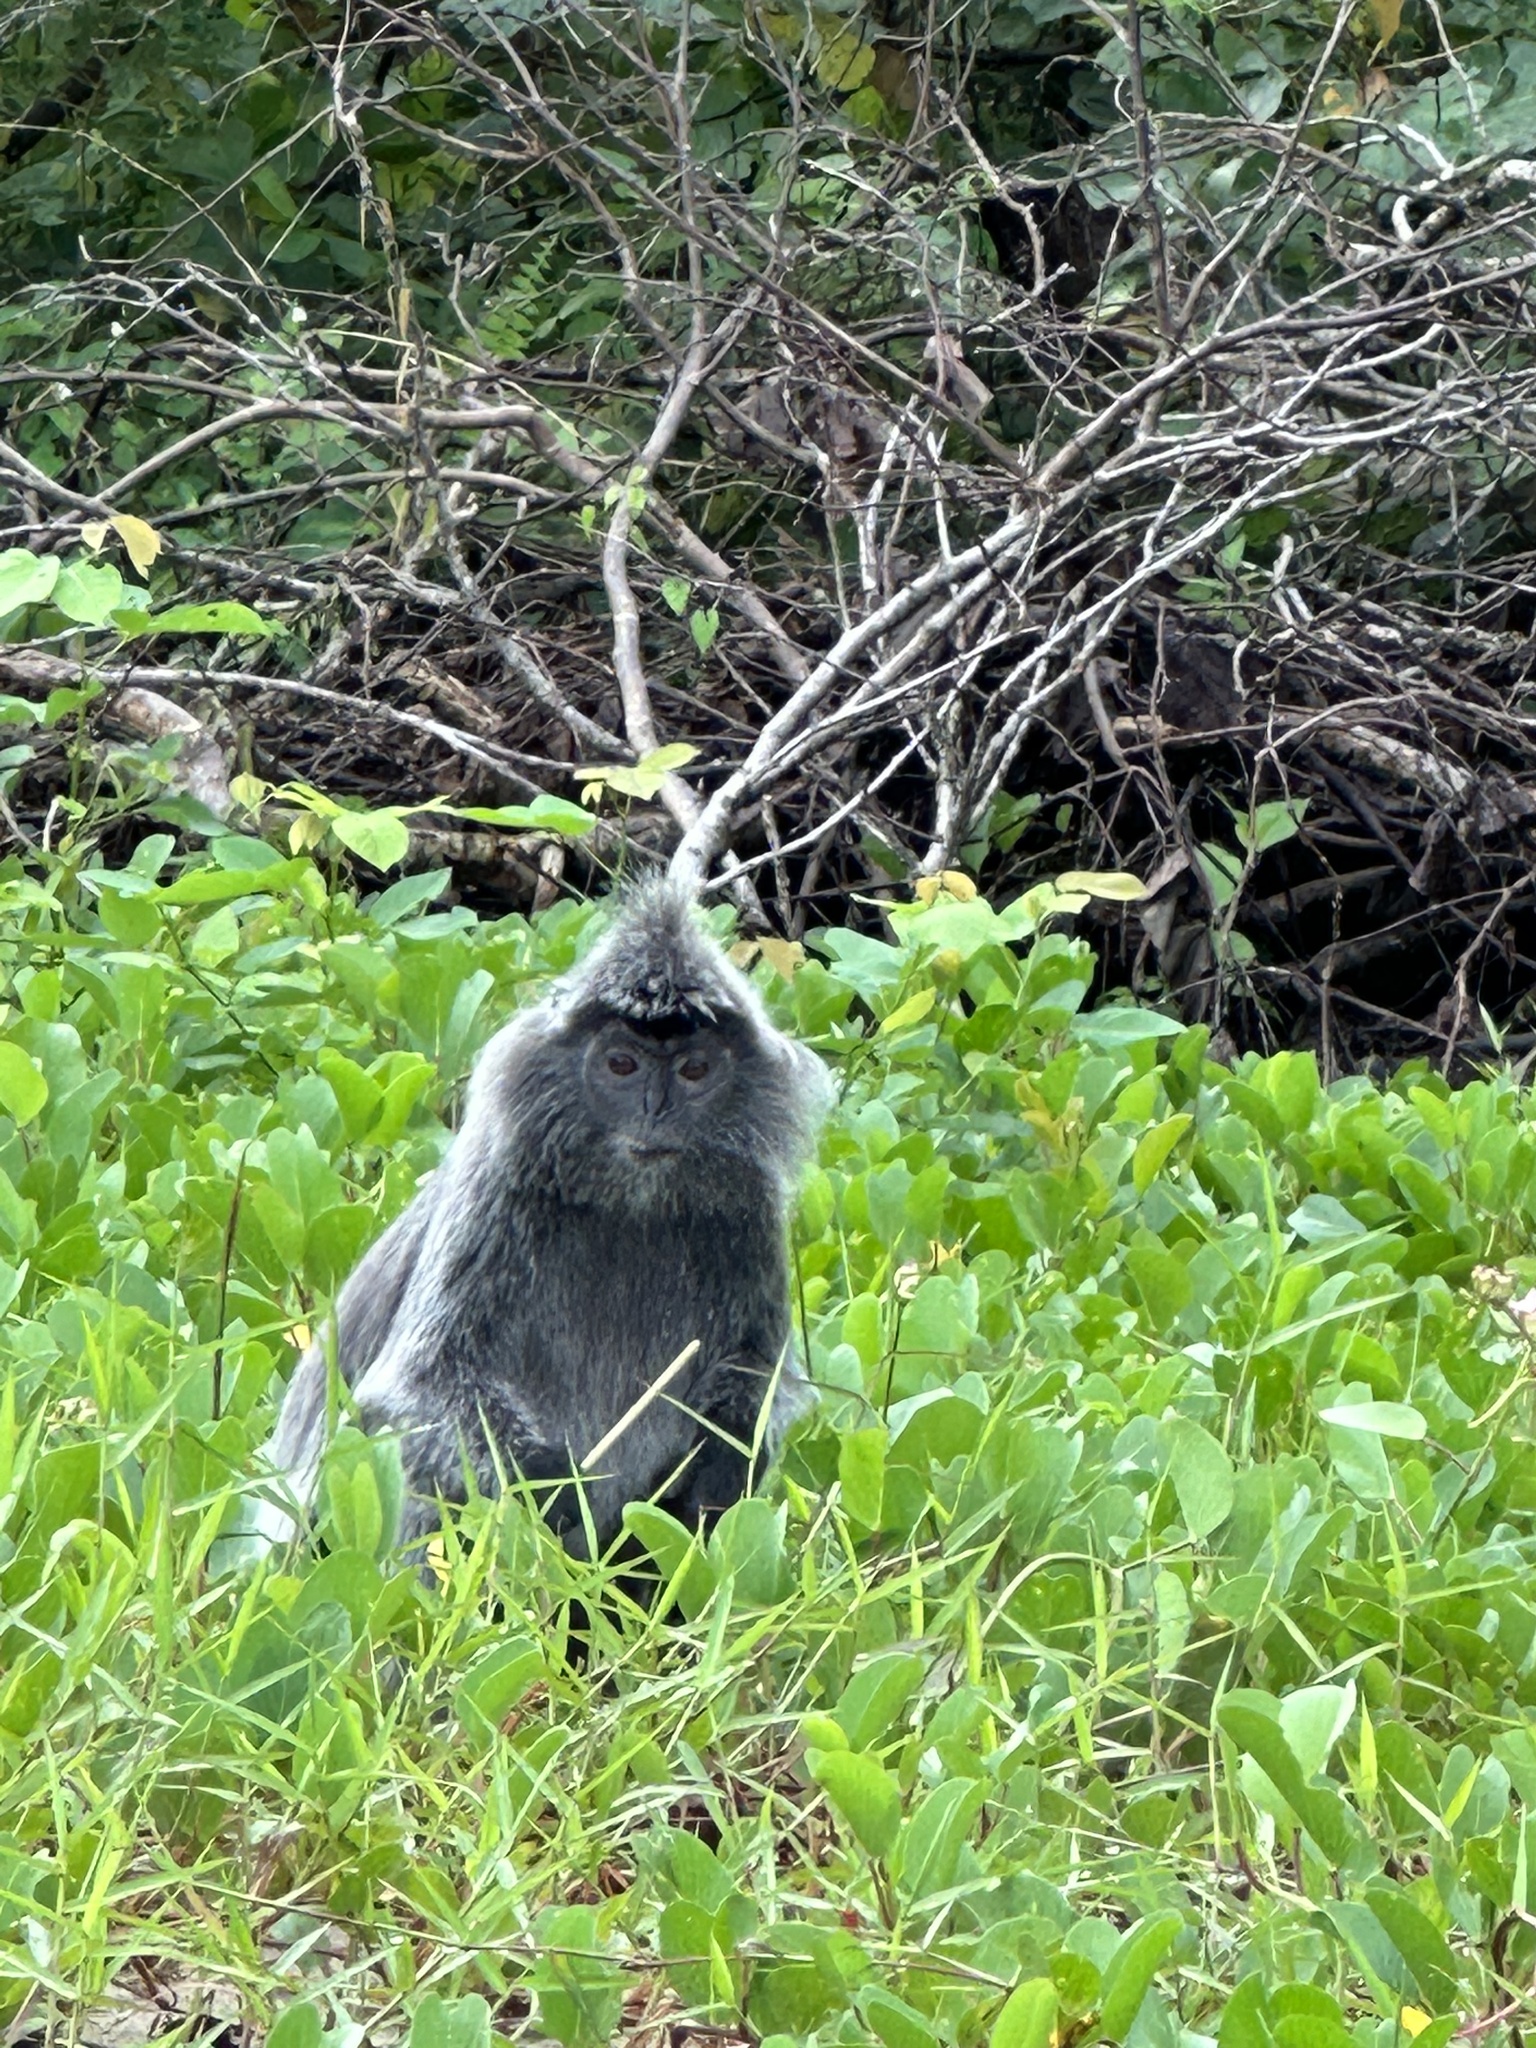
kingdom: Animalia
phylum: Chordata
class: Mammalia
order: Primates
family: Cercopithecidae
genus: Trachypithecus
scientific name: Trachypithecus cristatus
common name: Silvery lutung
